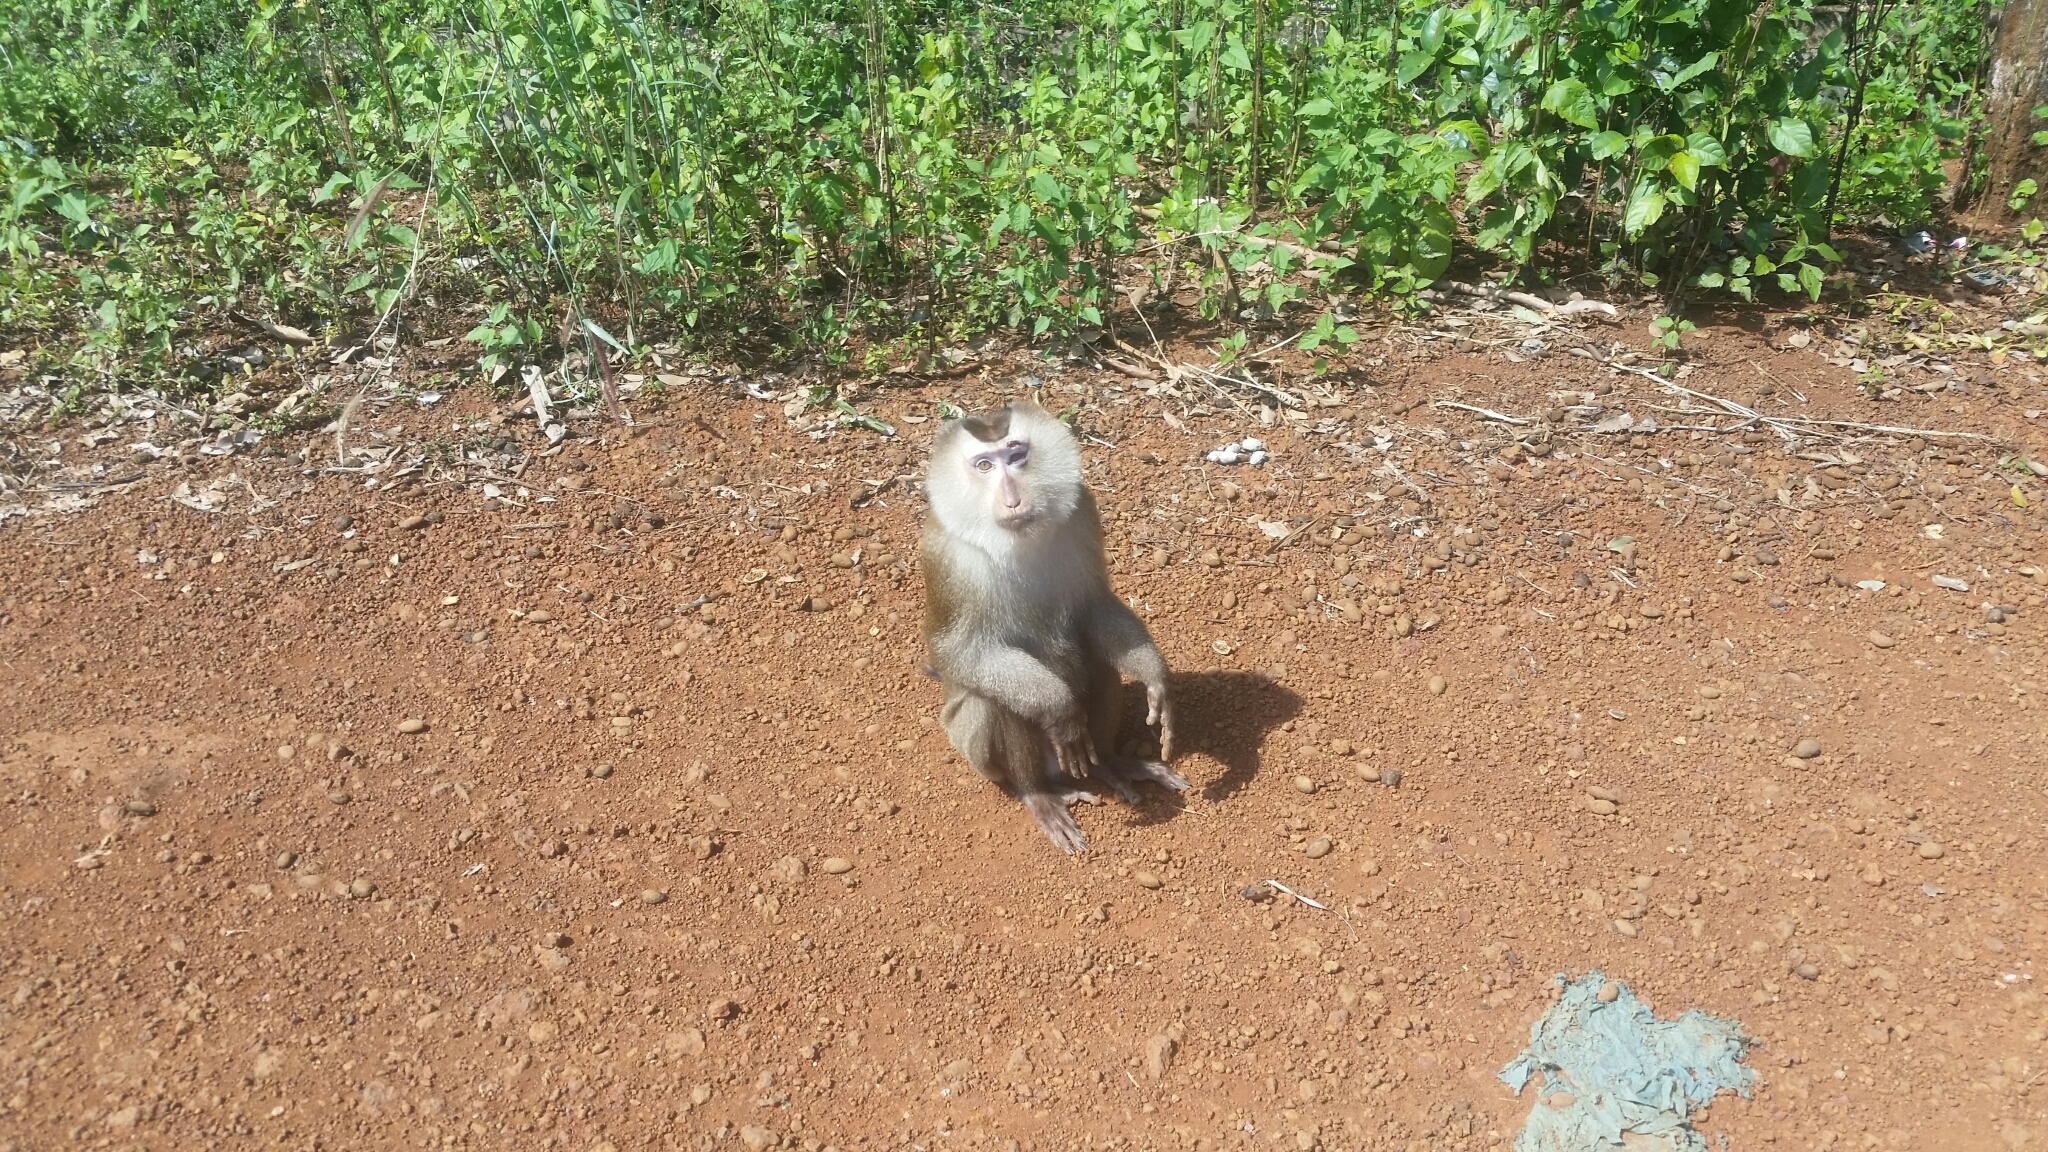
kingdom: Animalia
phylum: Chordata
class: Mammalia
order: Primates
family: Cercopithecidae
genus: Macaca
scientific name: Macaca leonina
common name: Northern pig-tailed macaque
